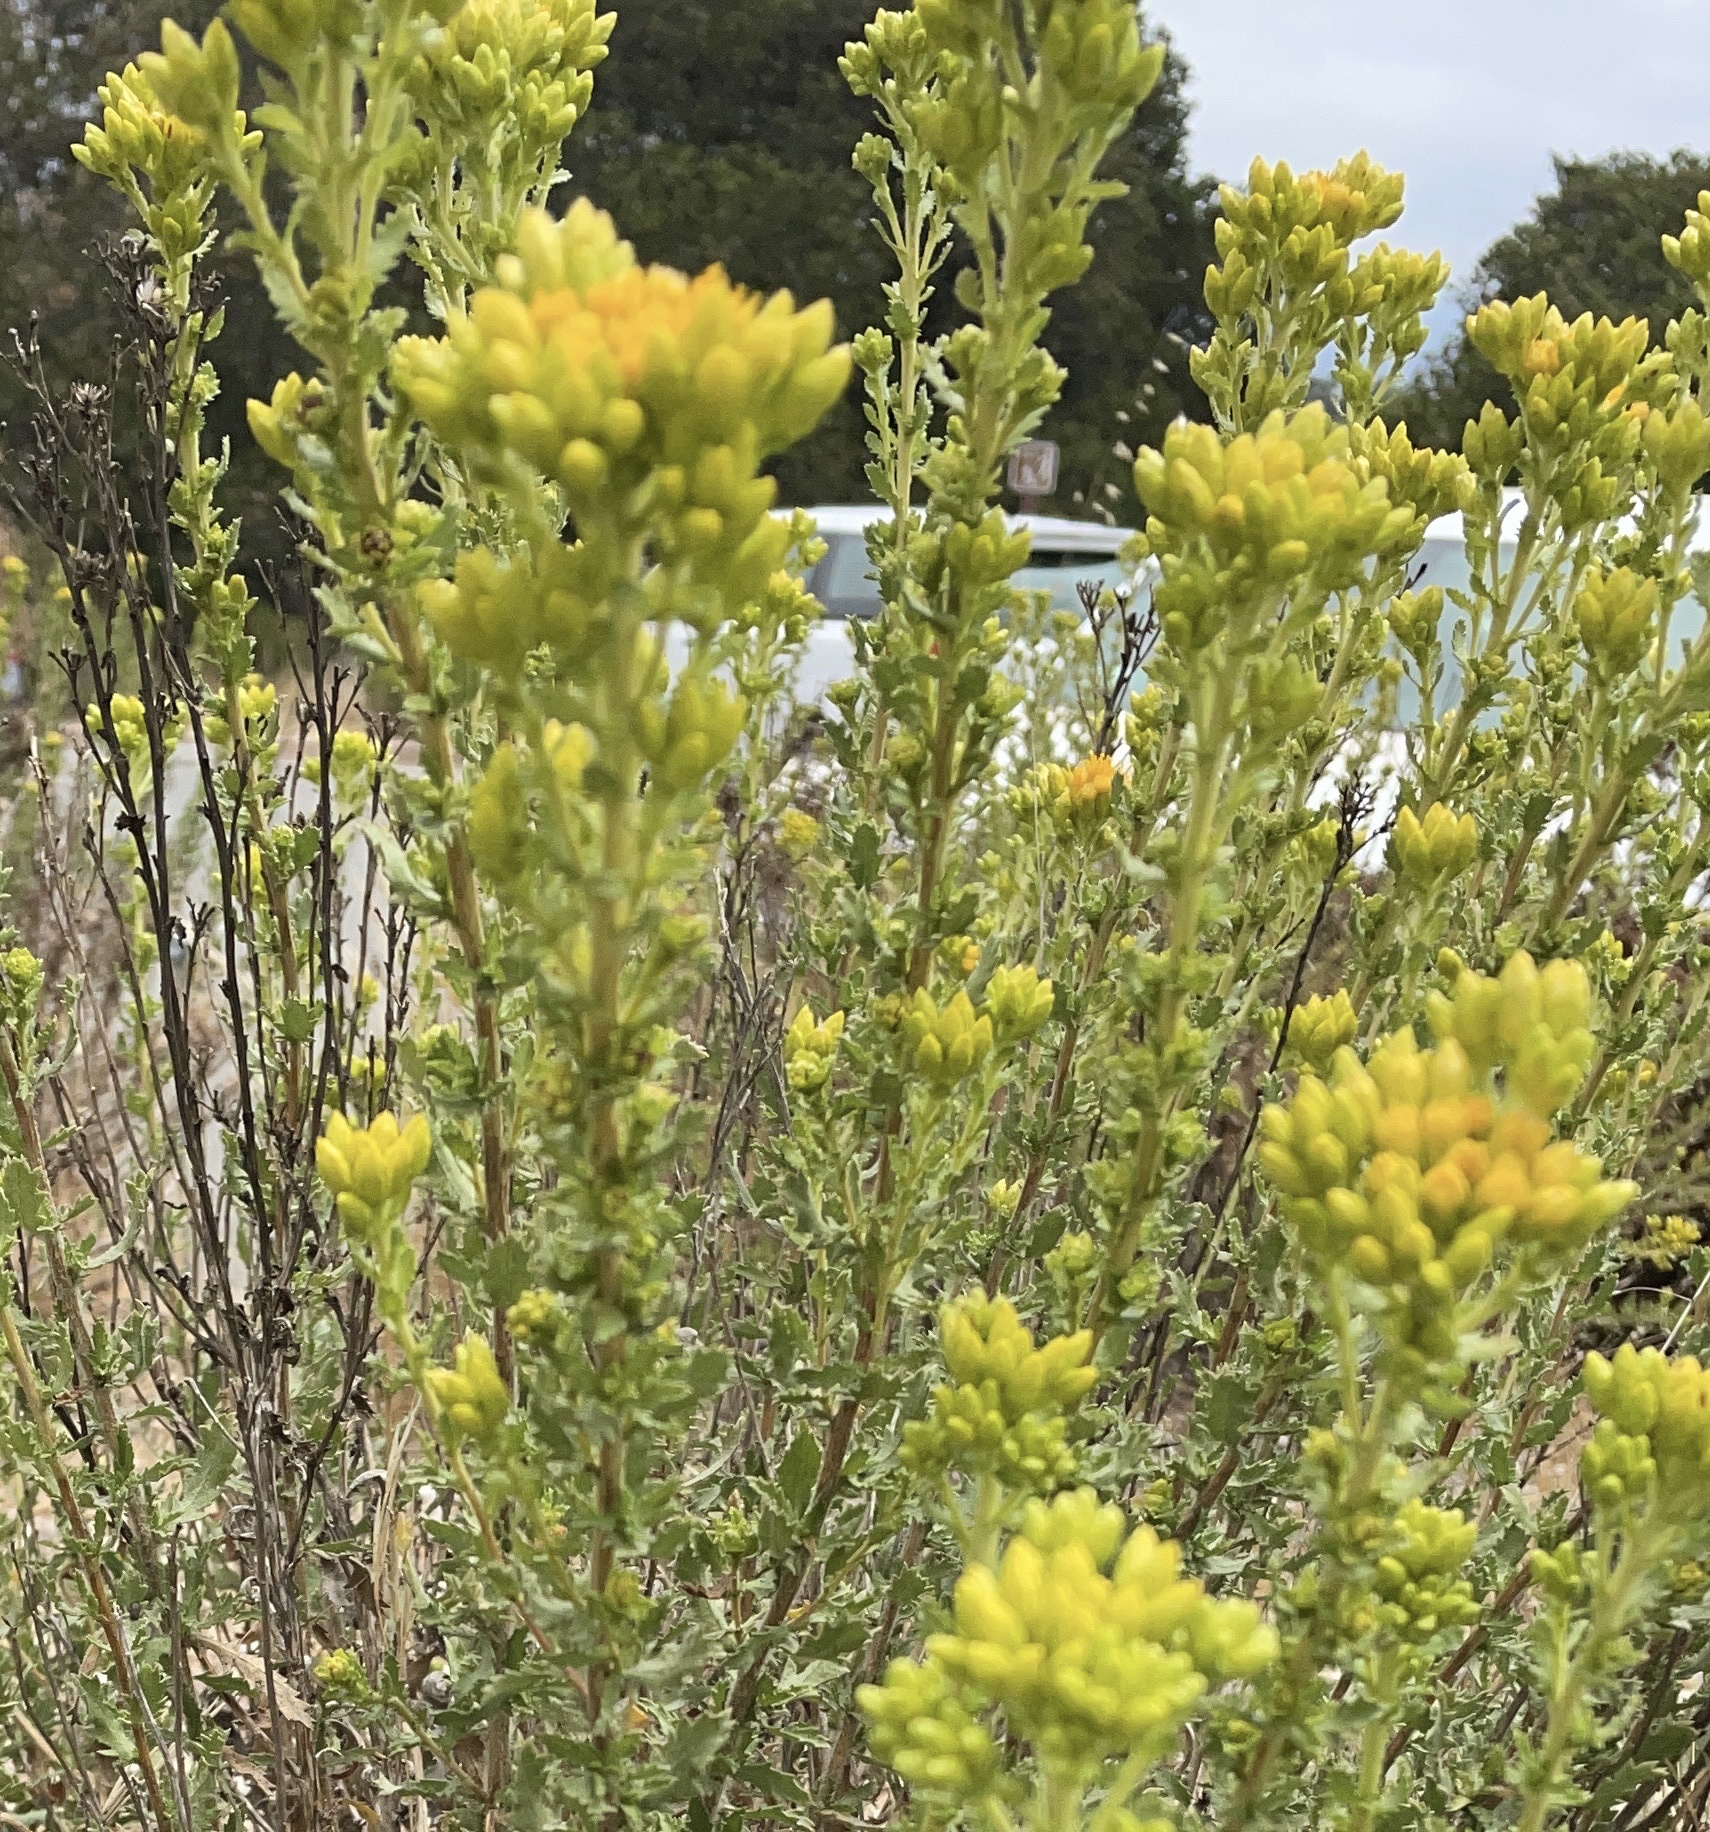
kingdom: Plantae
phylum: Tracheophyta
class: Magnoliopsida
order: Asterales
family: Asteraceae
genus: Isocoma
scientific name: Isocoma menziesii
